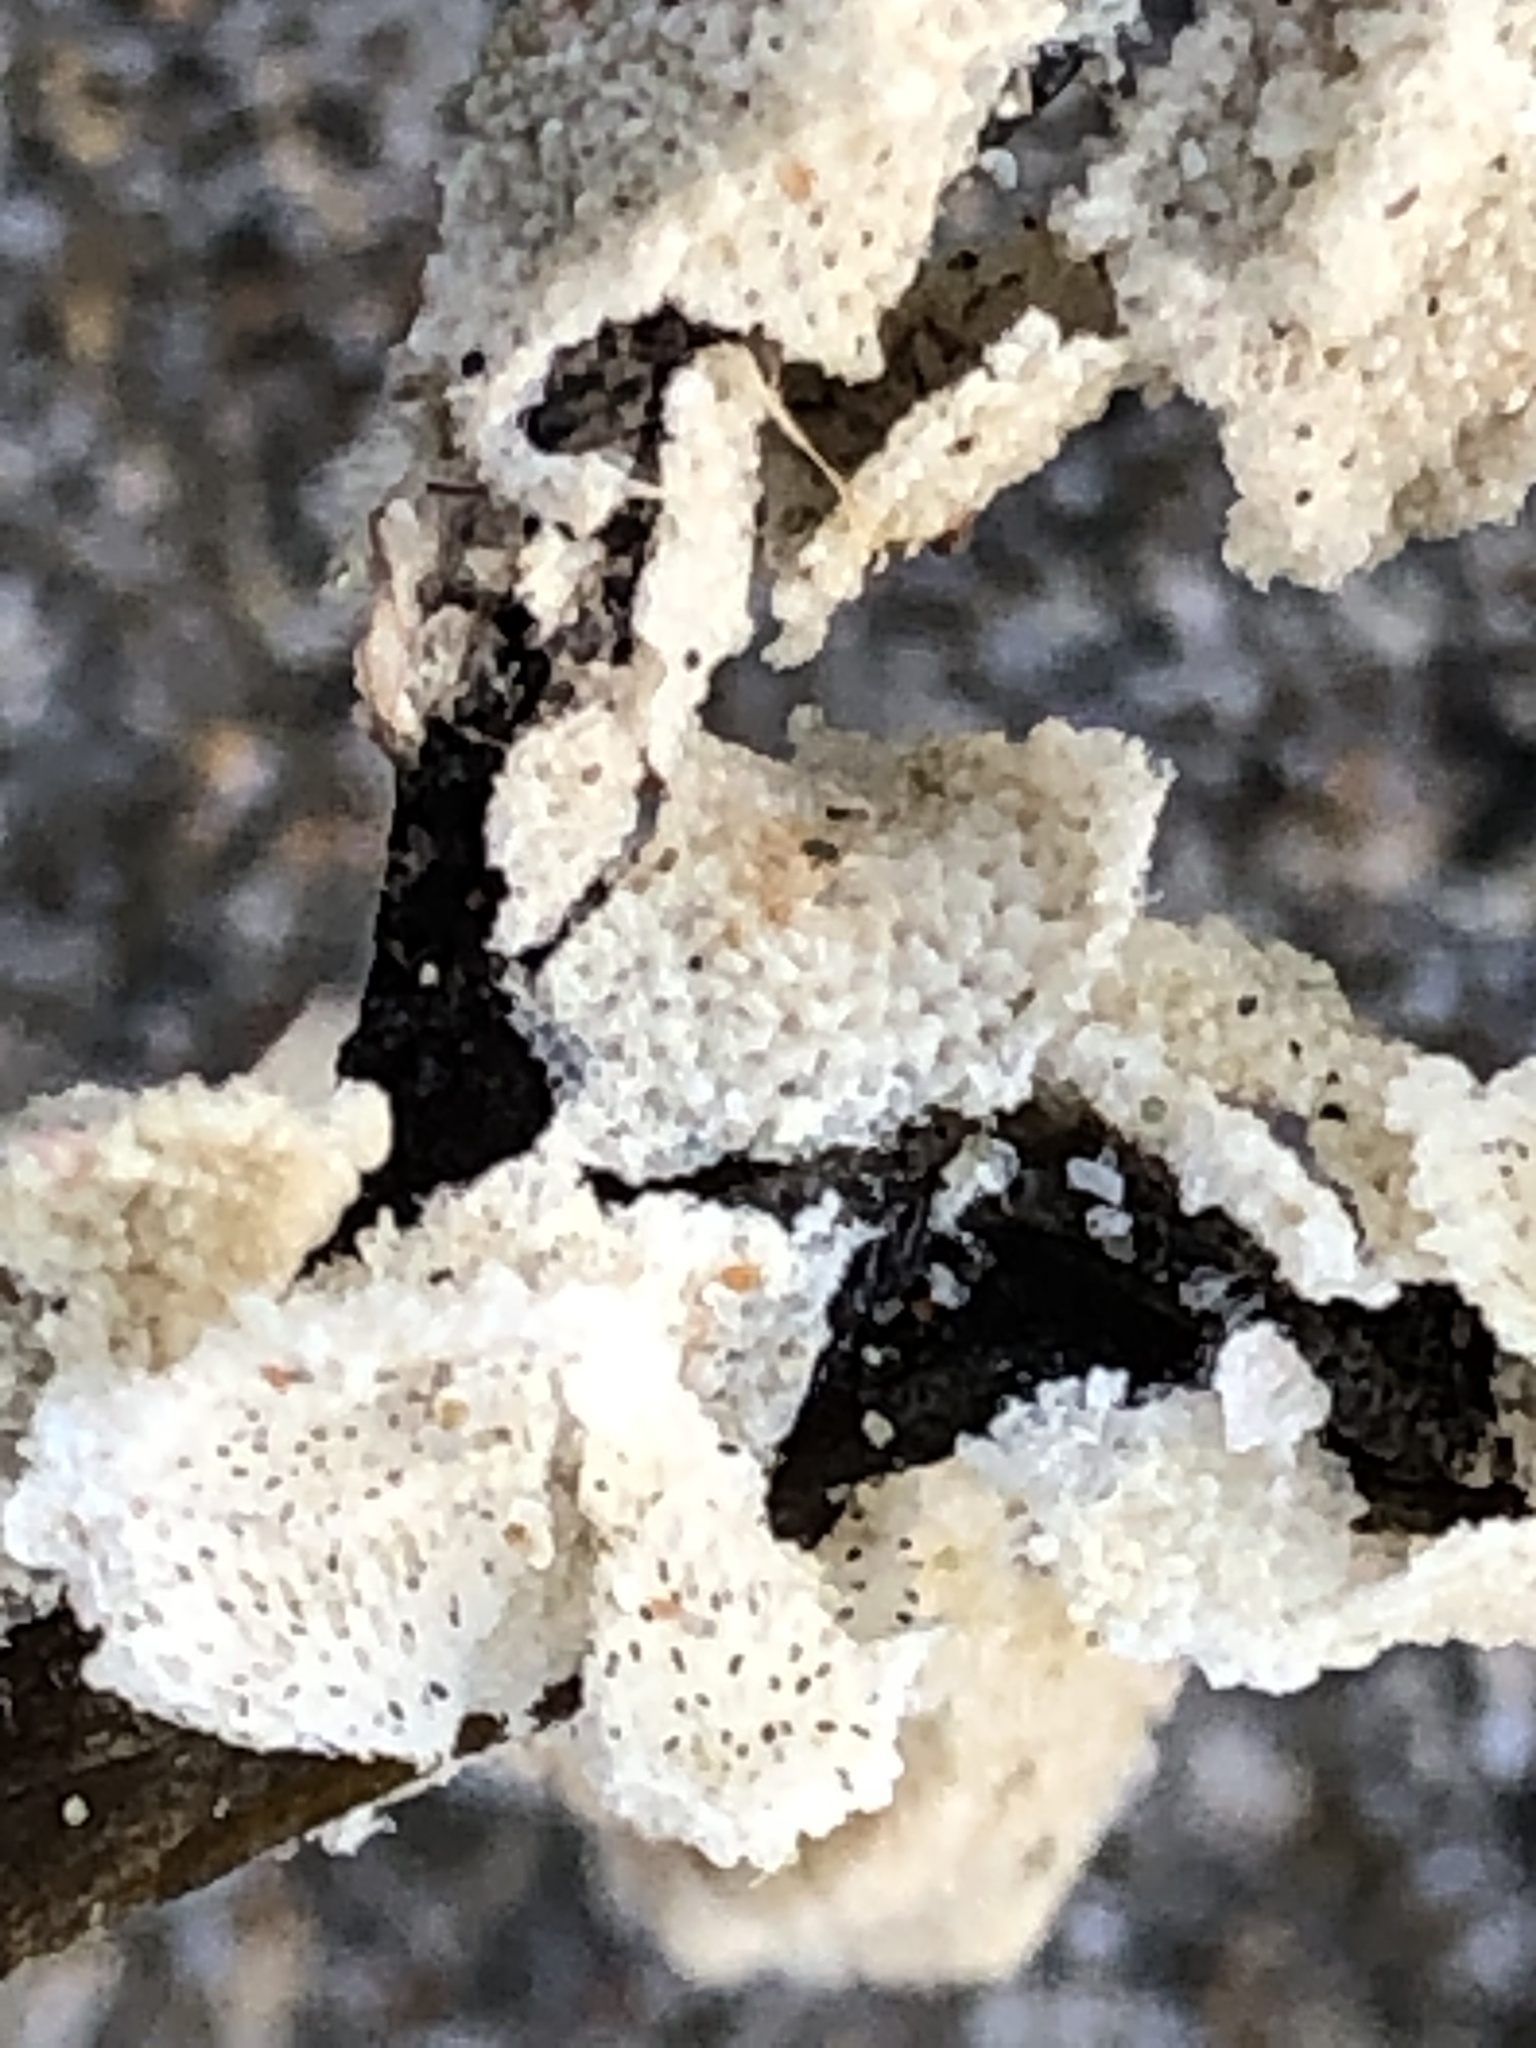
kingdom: Animalia
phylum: Bryozoa
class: Gymnolaemata
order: Cheilostomatida
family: Membraniporidae
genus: Membranipora
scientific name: Membranipora
